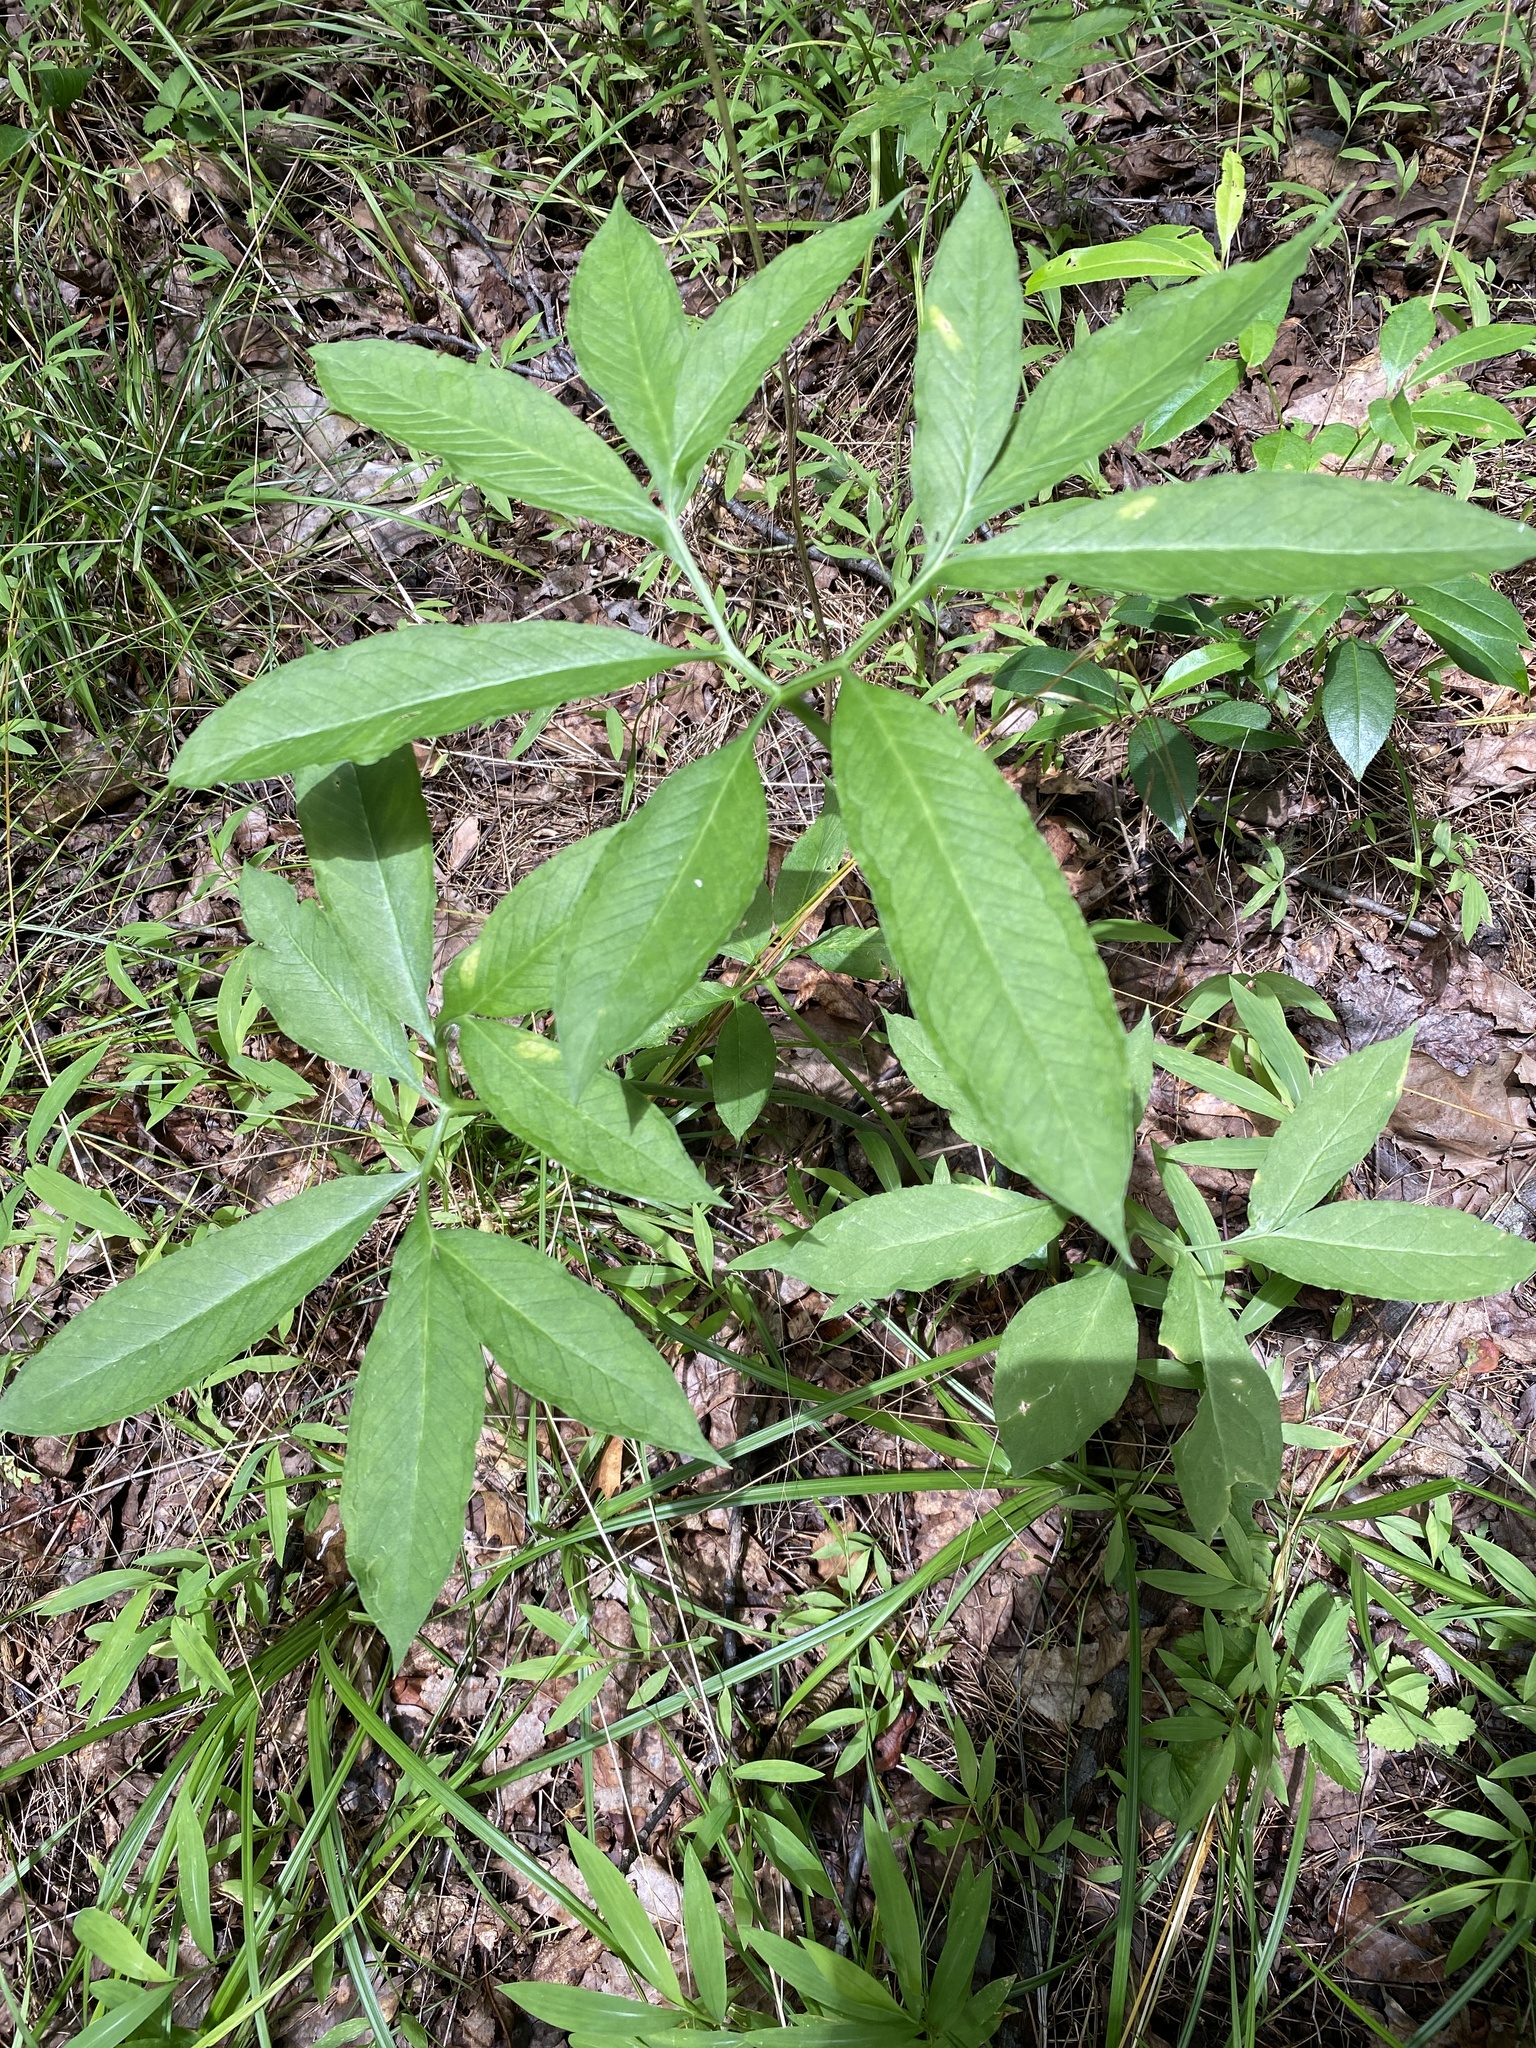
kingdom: Plantae
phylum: Tracheophyta
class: Liliopsida
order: Alismatales
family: Araceae
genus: Arisaema
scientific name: Arisaema dracontium
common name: Dragon-arum
